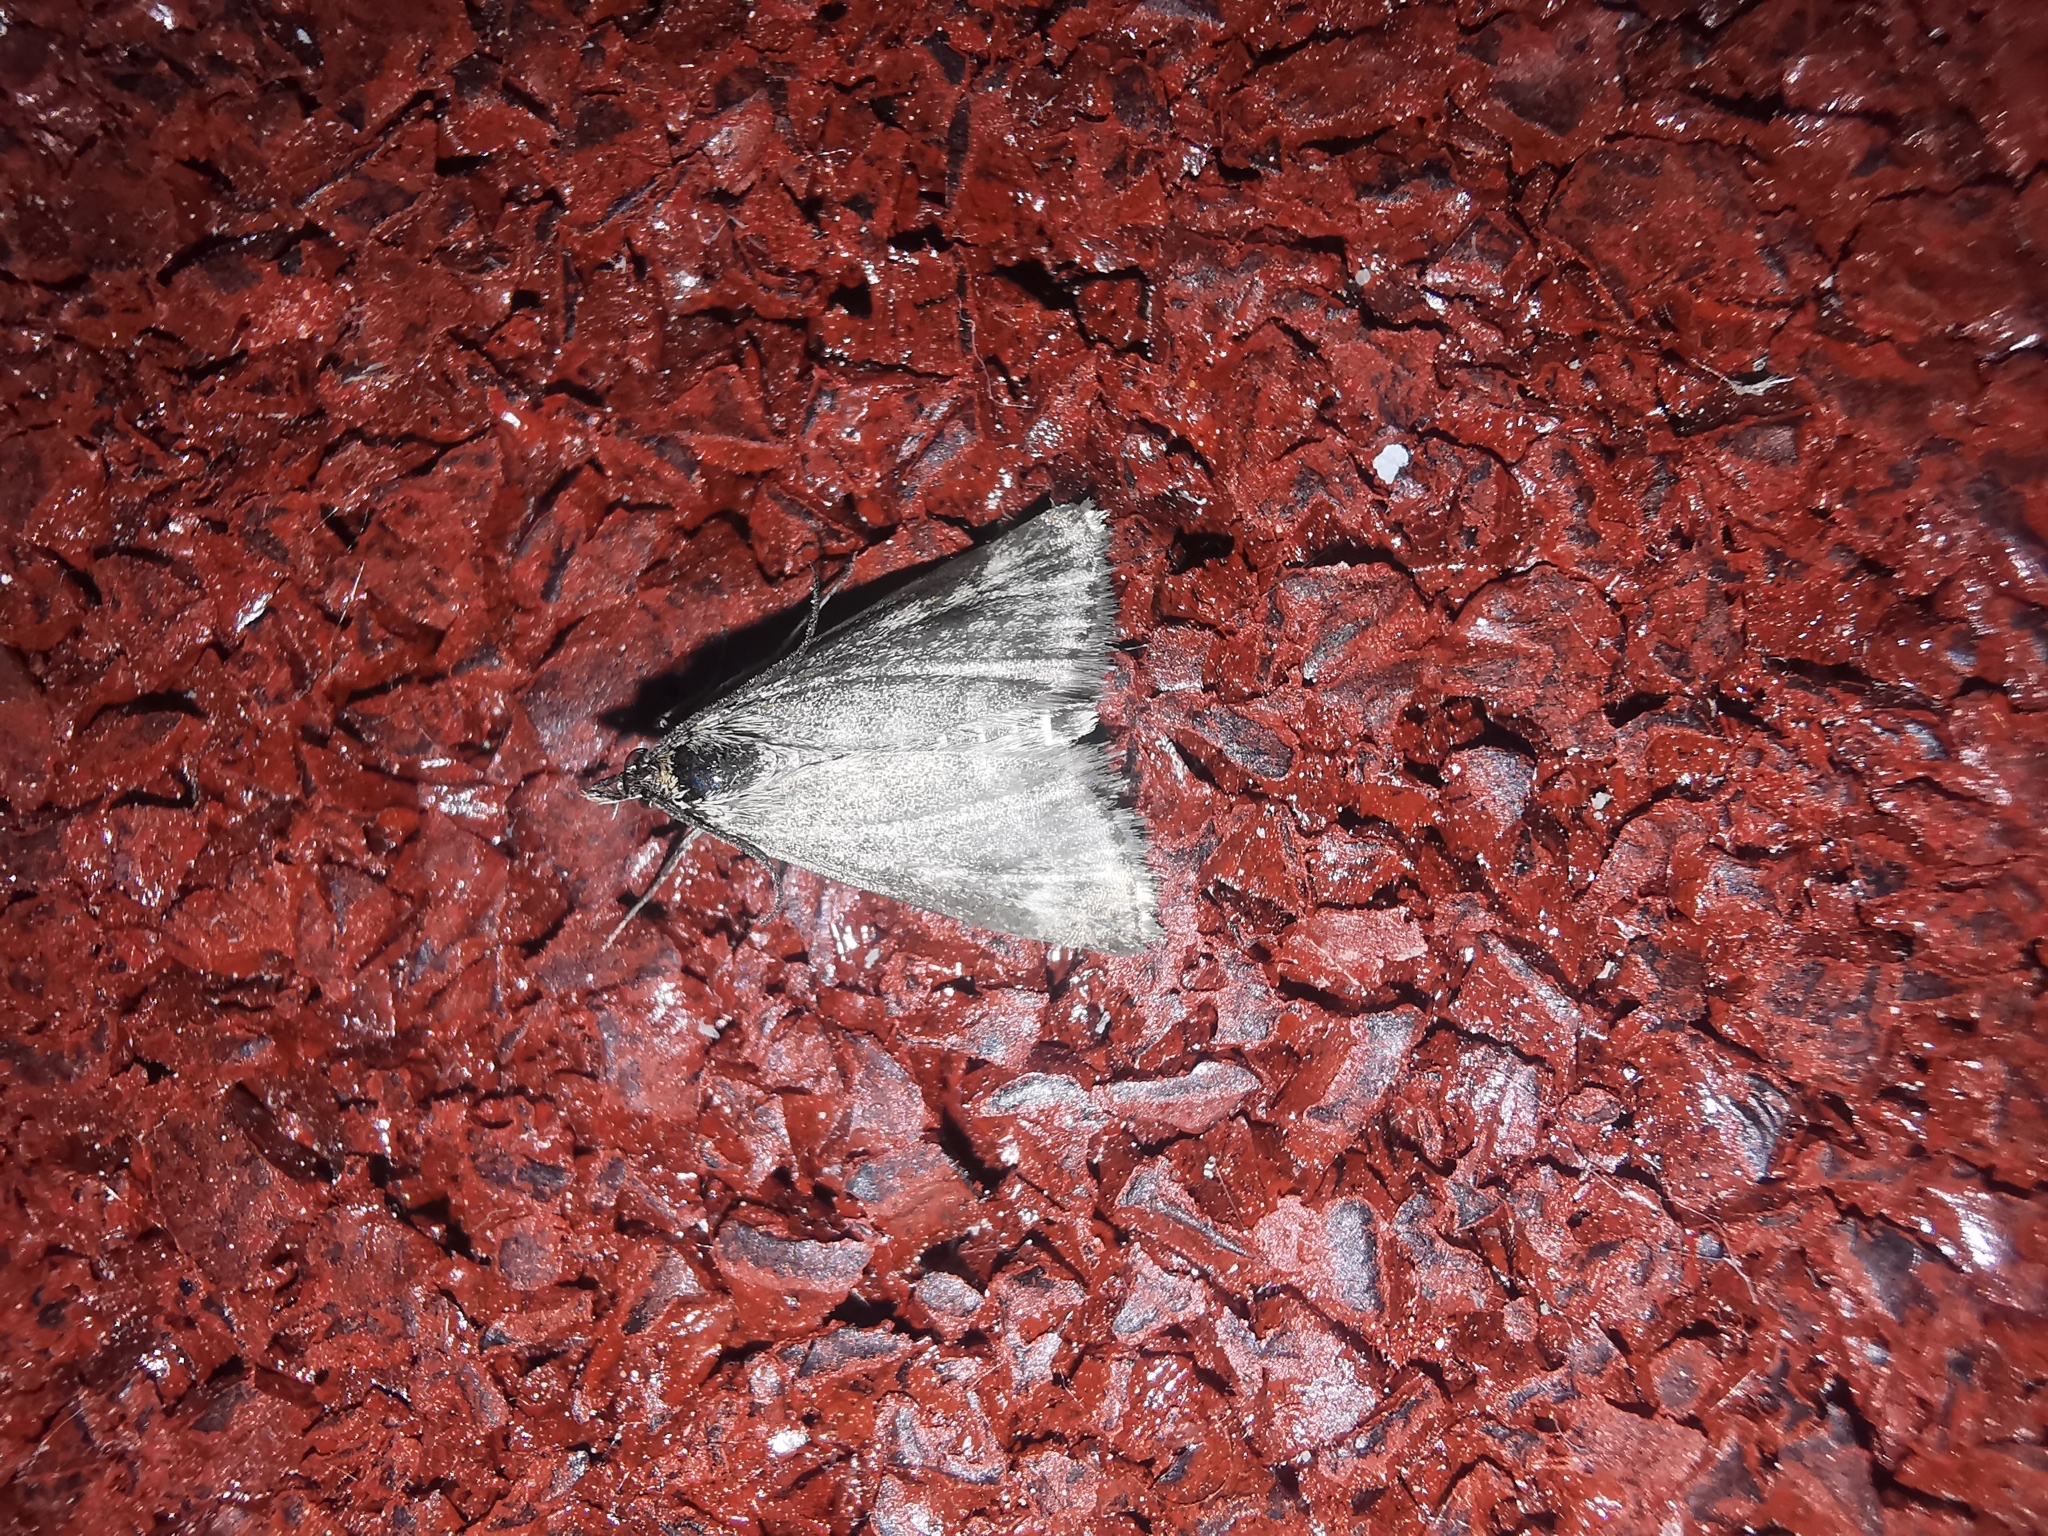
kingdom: Animalia
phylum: Arthropoda
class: Insecta
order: Lepidoptera
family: Crambidae
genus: Pyrausta
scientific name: Pyrausta despicata
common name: Straw-barred pearl
